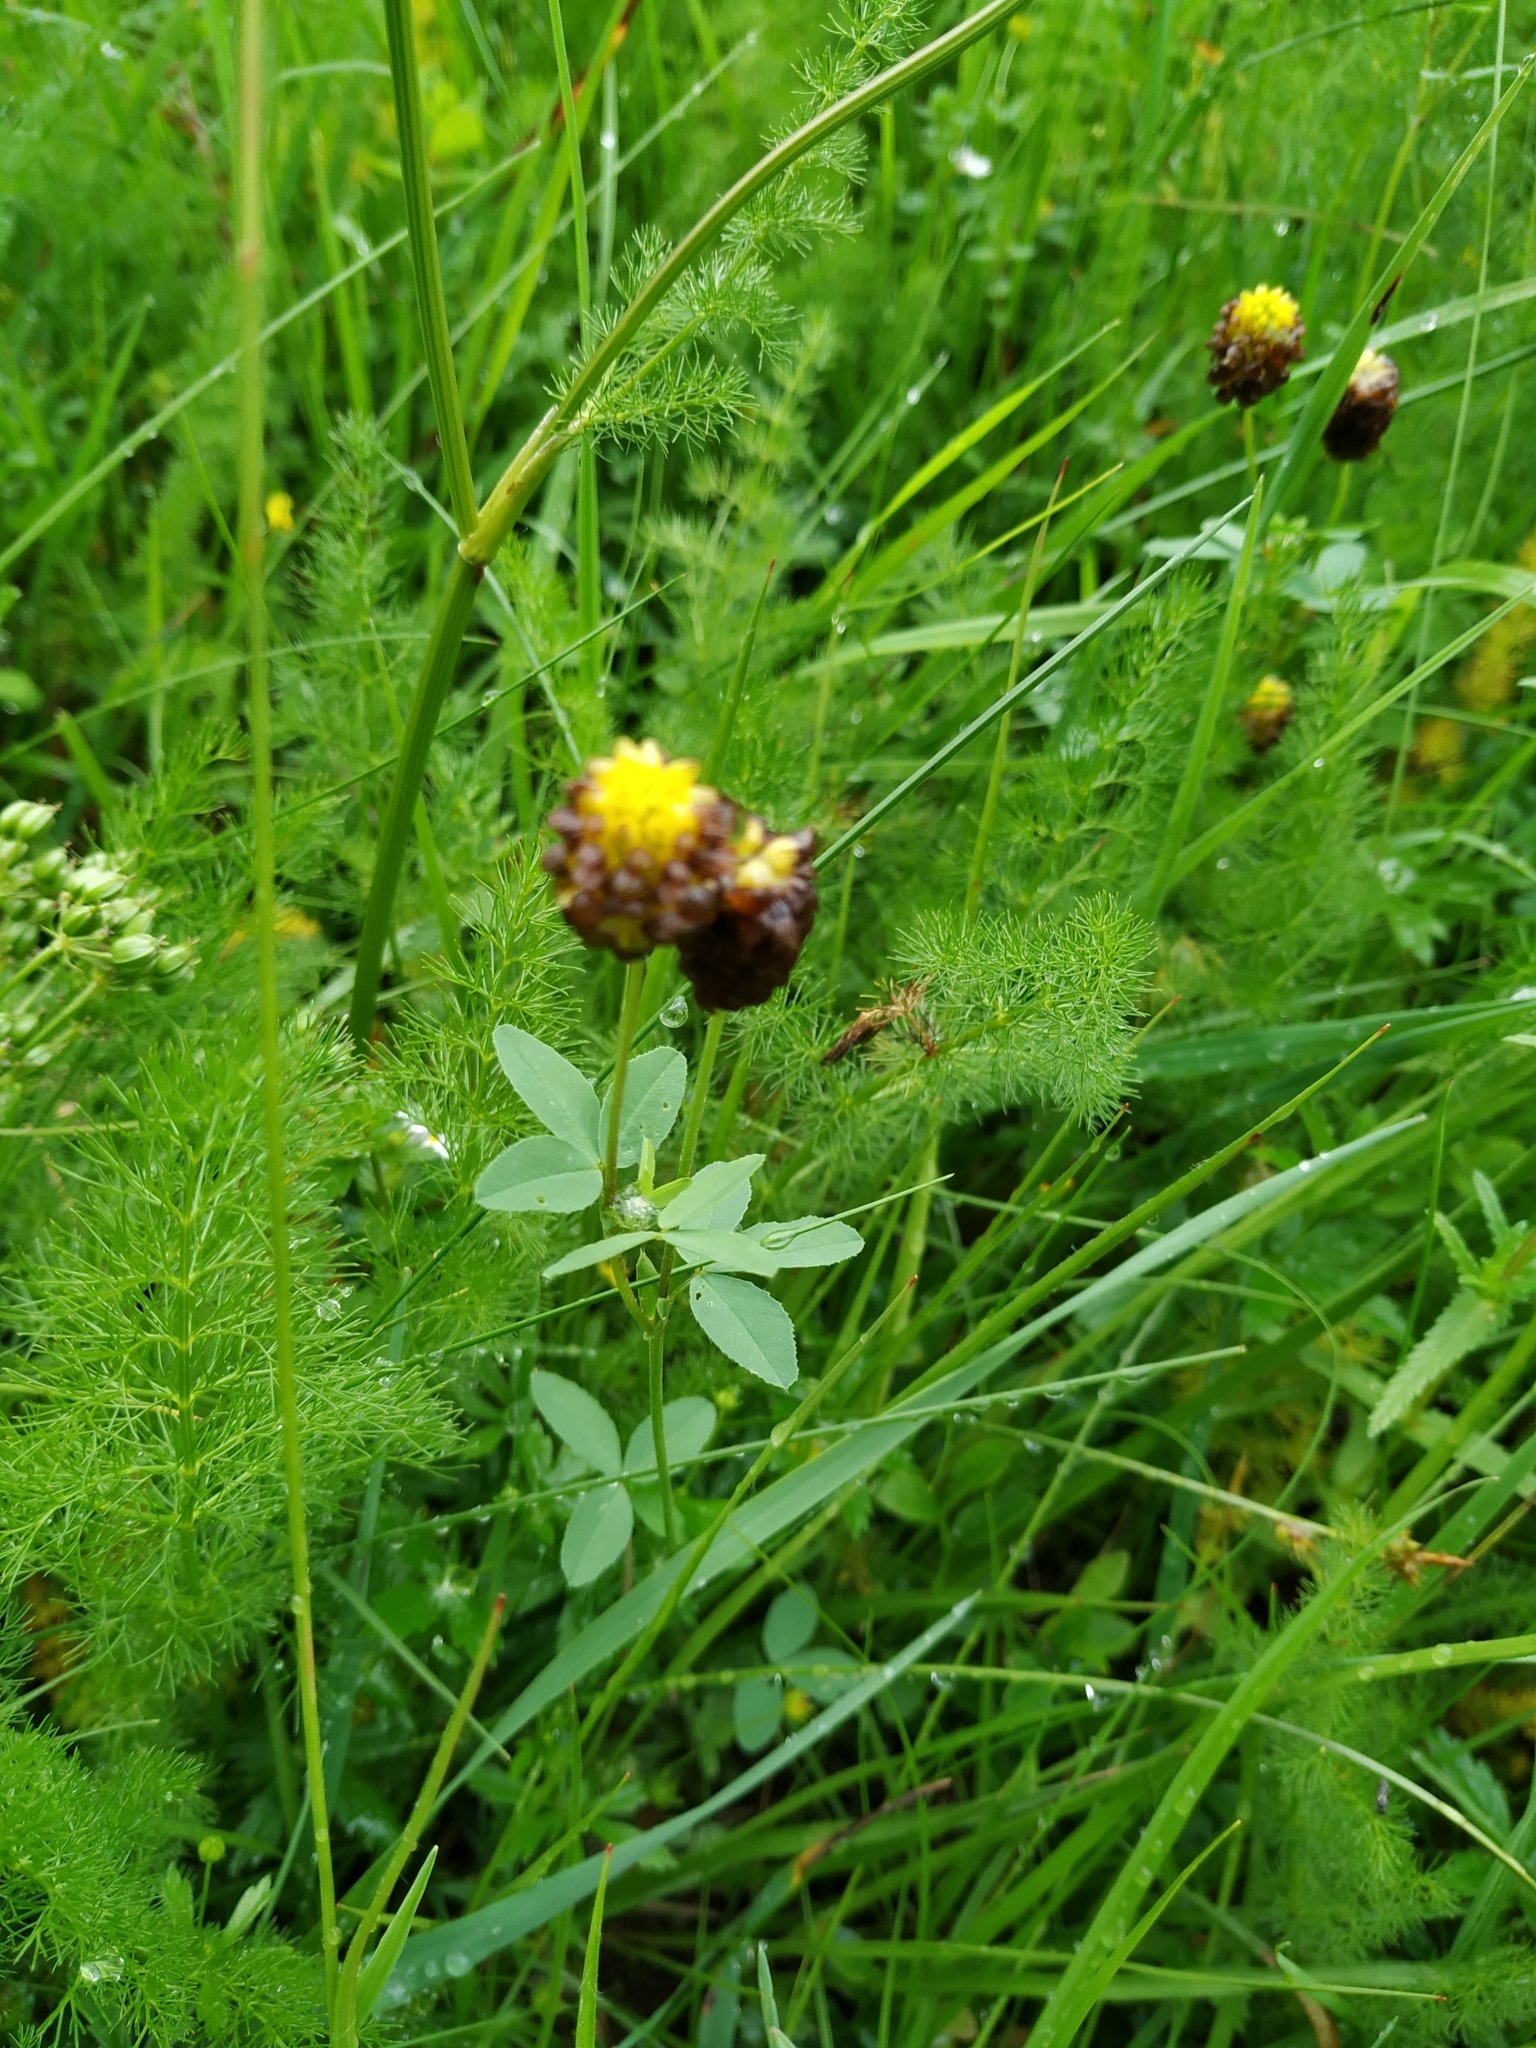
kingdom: Plantae
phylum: Tracheophyta
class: Magnoliopsida
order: Fabales
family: Fabaceae
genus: Trifolium
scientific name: Trifolium spadiceum
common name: Brown moor clover
